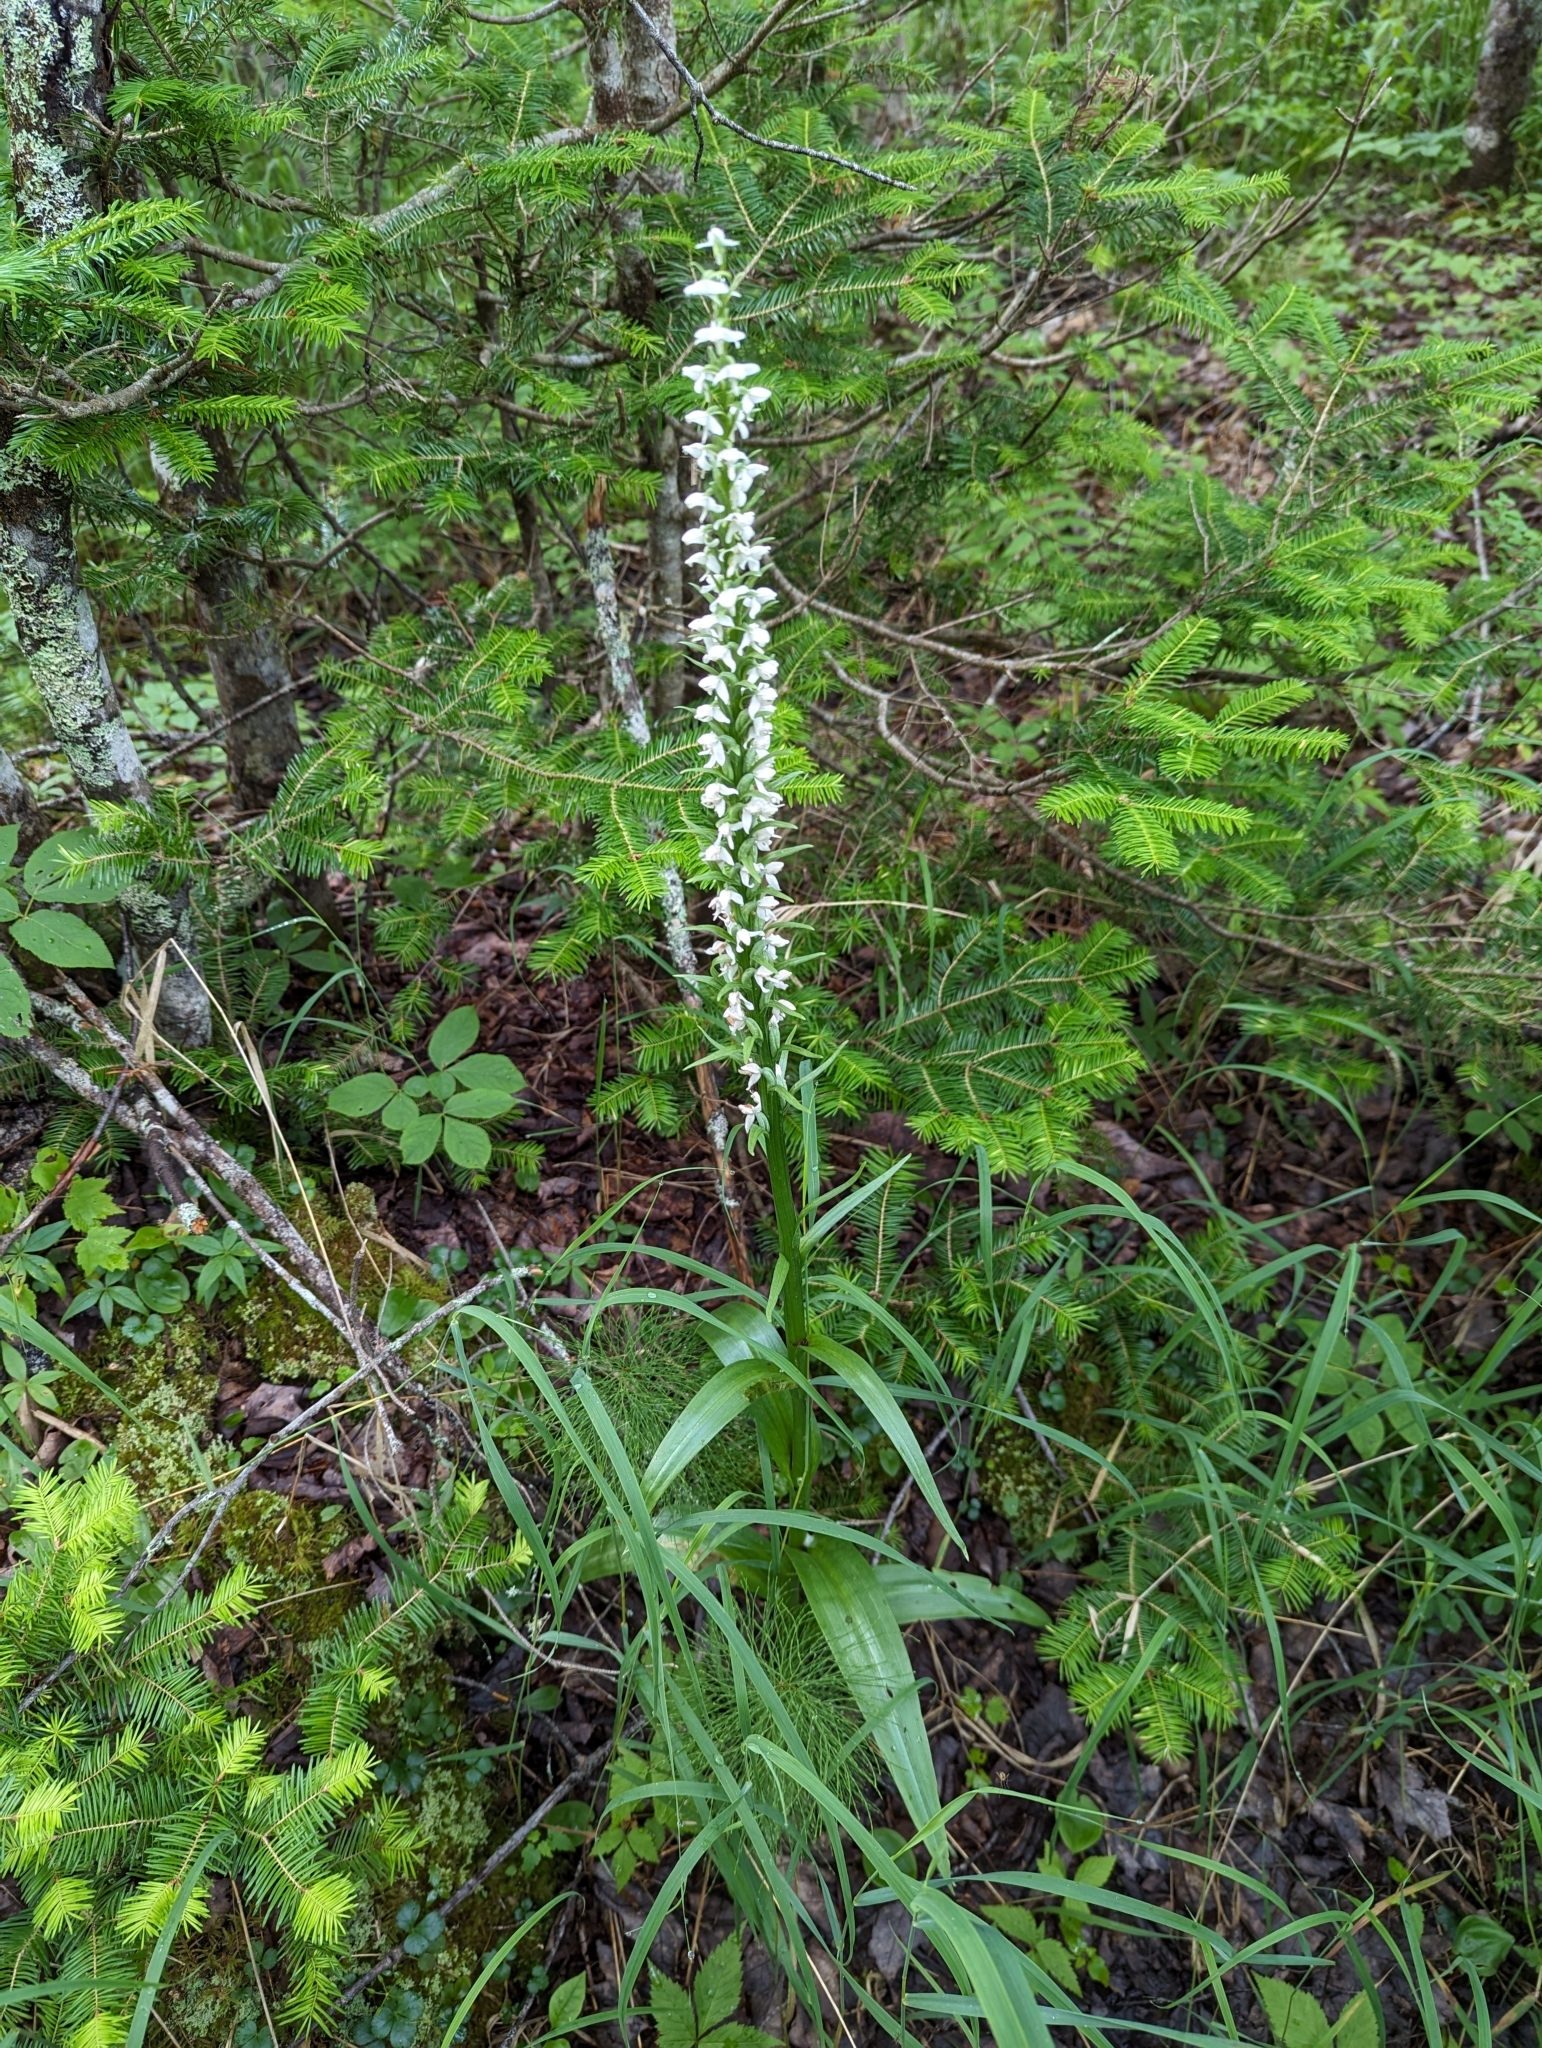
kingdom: Plantae
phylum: Tracheophyta
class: Liliopsida
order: Asparagales
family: Orchidaceae
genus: Platanthera
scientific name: Platanthera dilatata
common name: Bog candles
